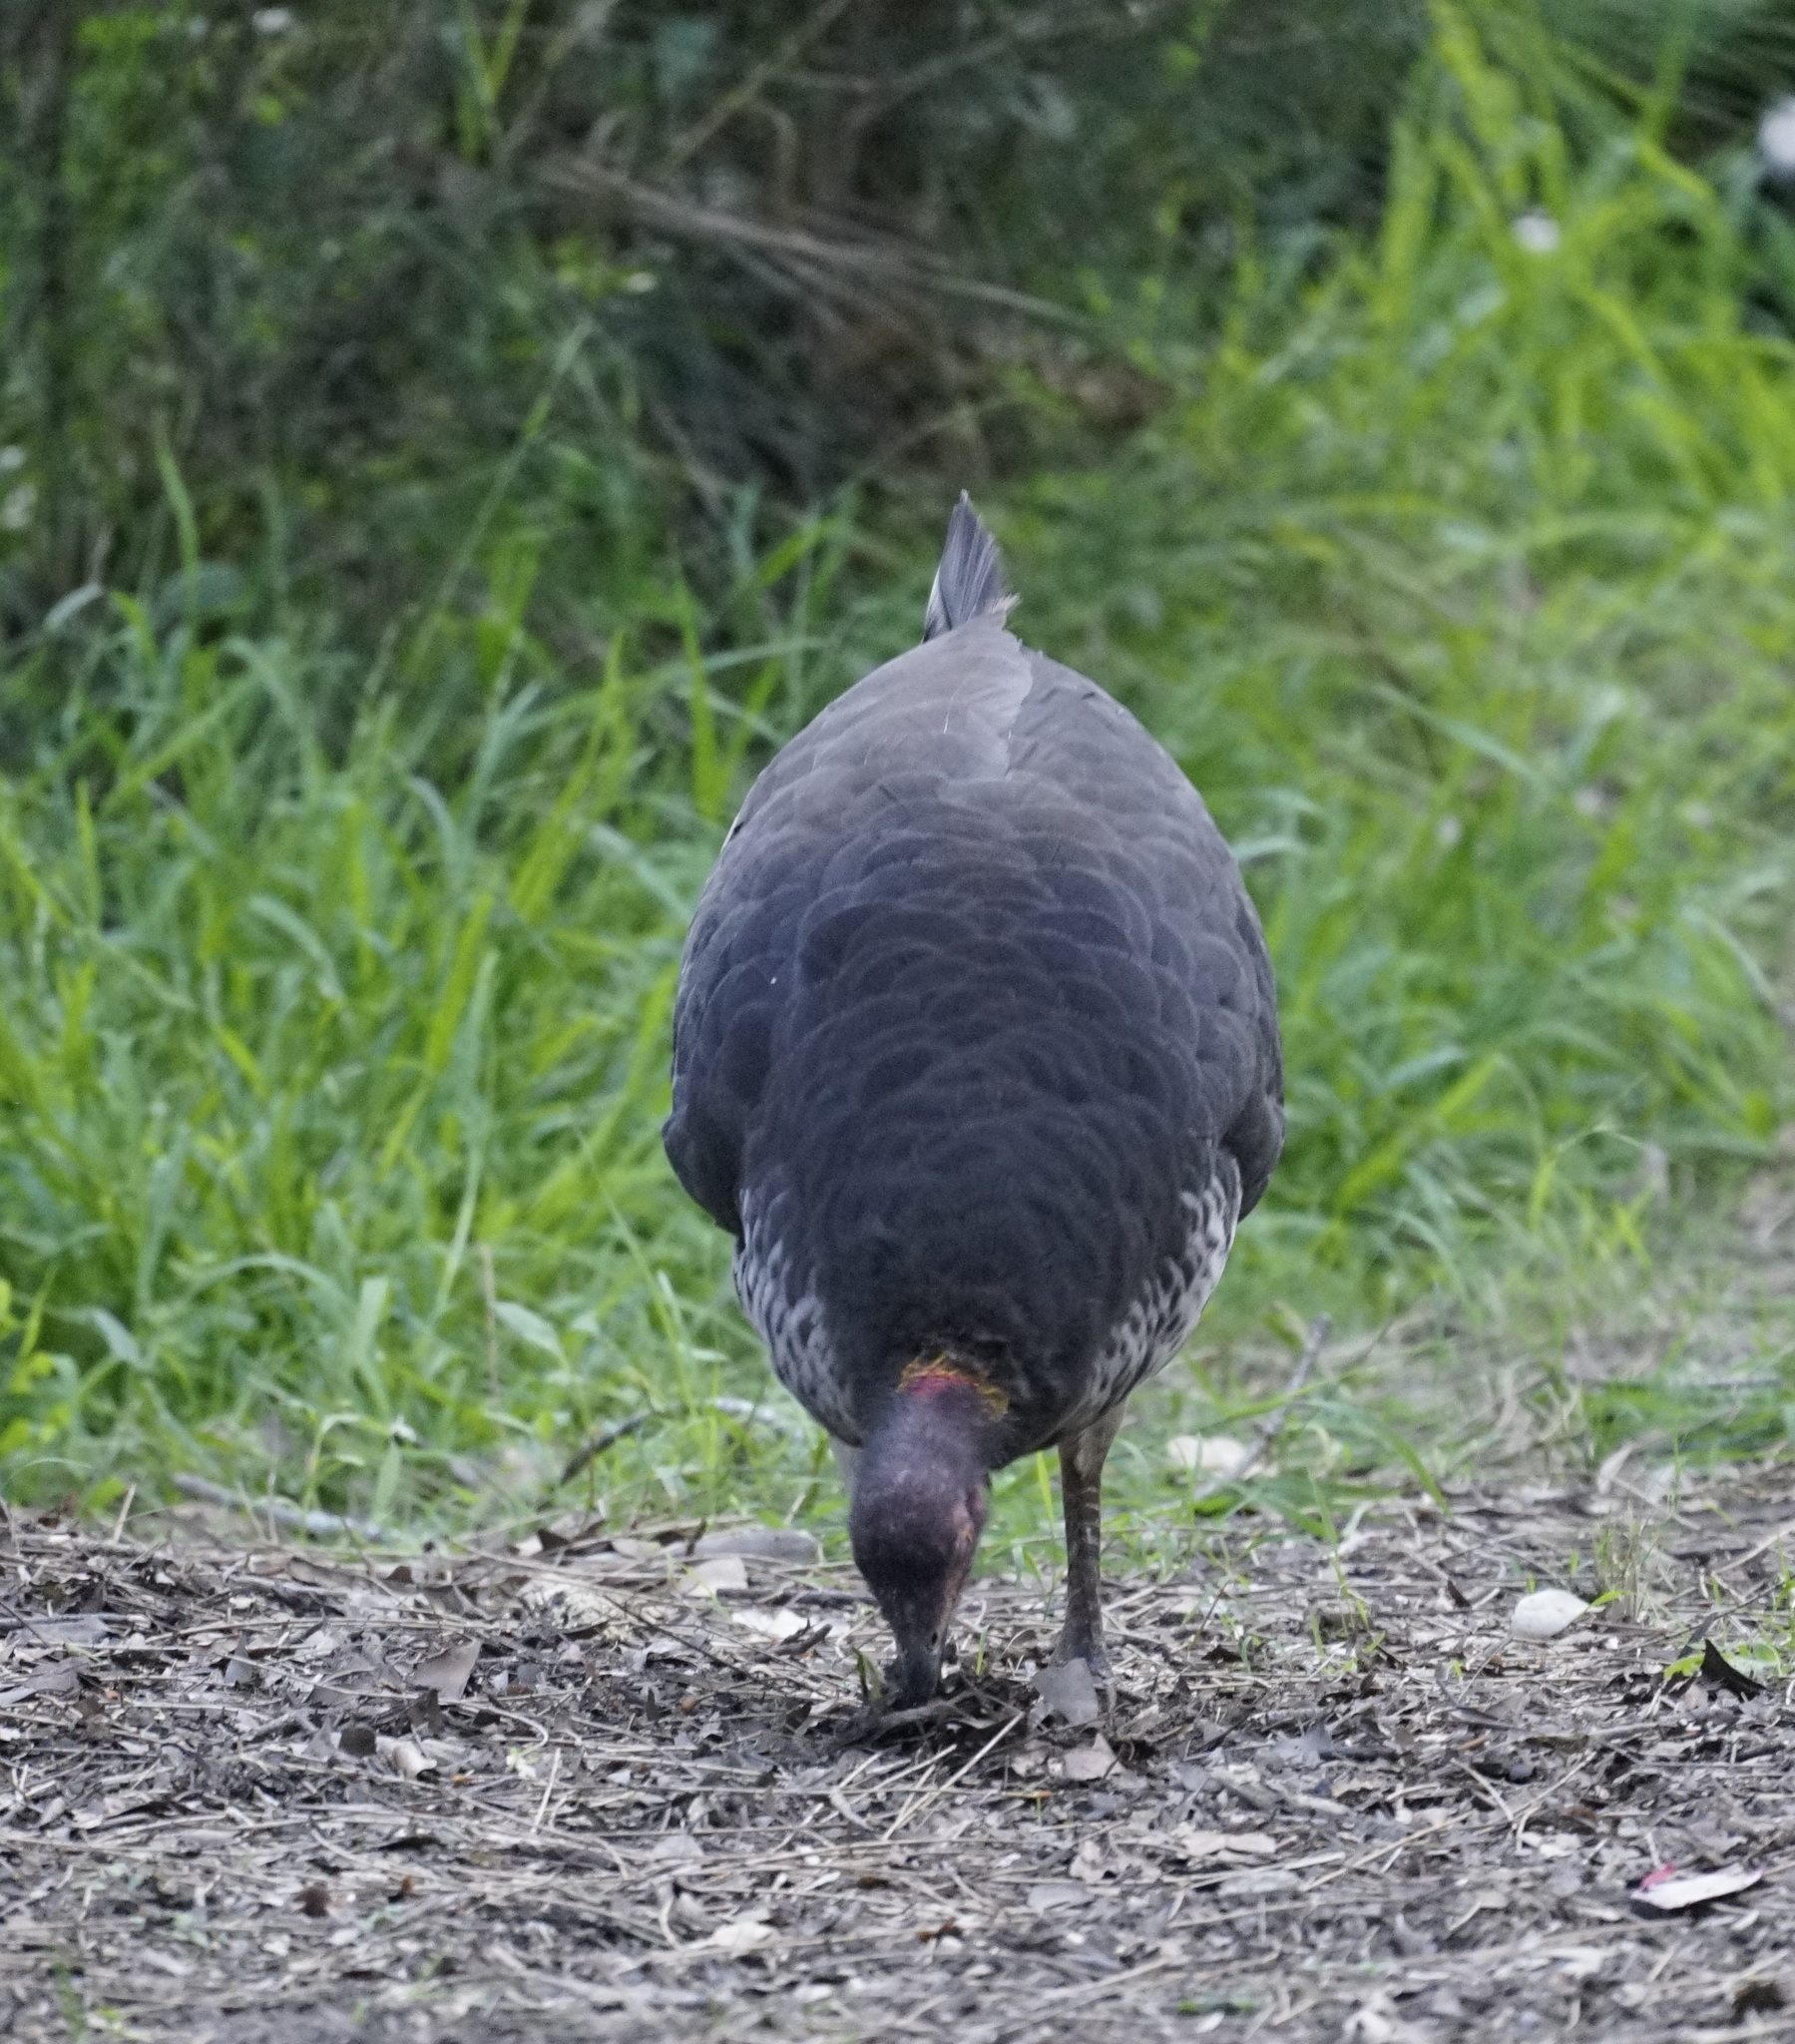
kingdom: Animalia
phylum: Chordata
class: Aves
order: Galliformes
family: Megapodiidae
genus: Alectura
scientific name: Alectura lathami
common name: Australian brushturkey
